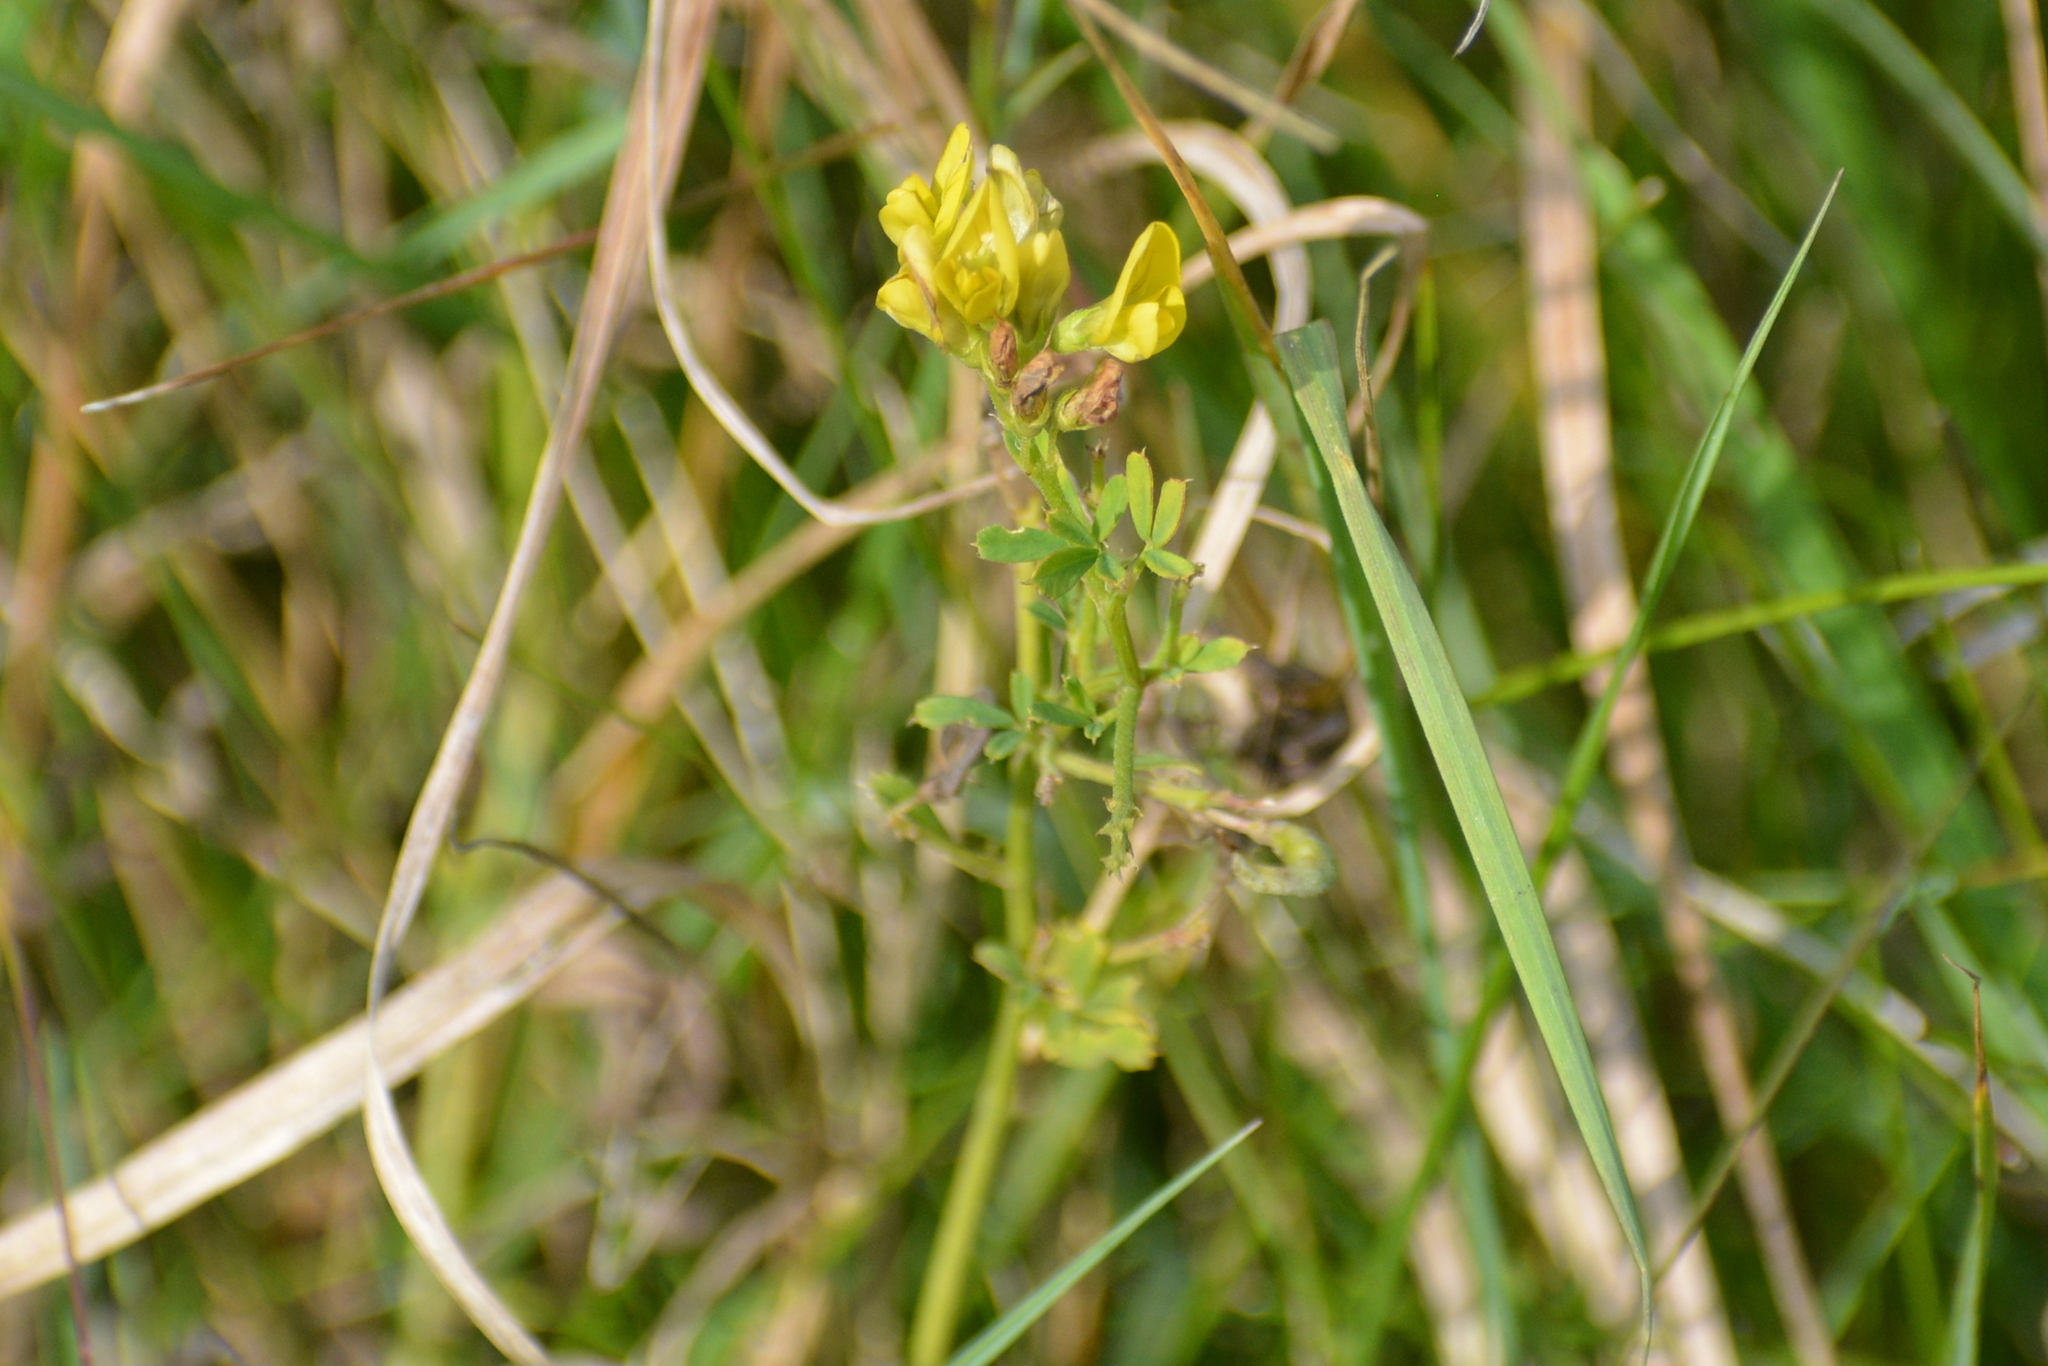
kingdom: Plantae
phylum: Tracheophyta
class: Magnoliopsida
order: Fabales
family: Fabaceae
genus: Medicago
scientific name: Medicago falcata
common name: Sickle medick
